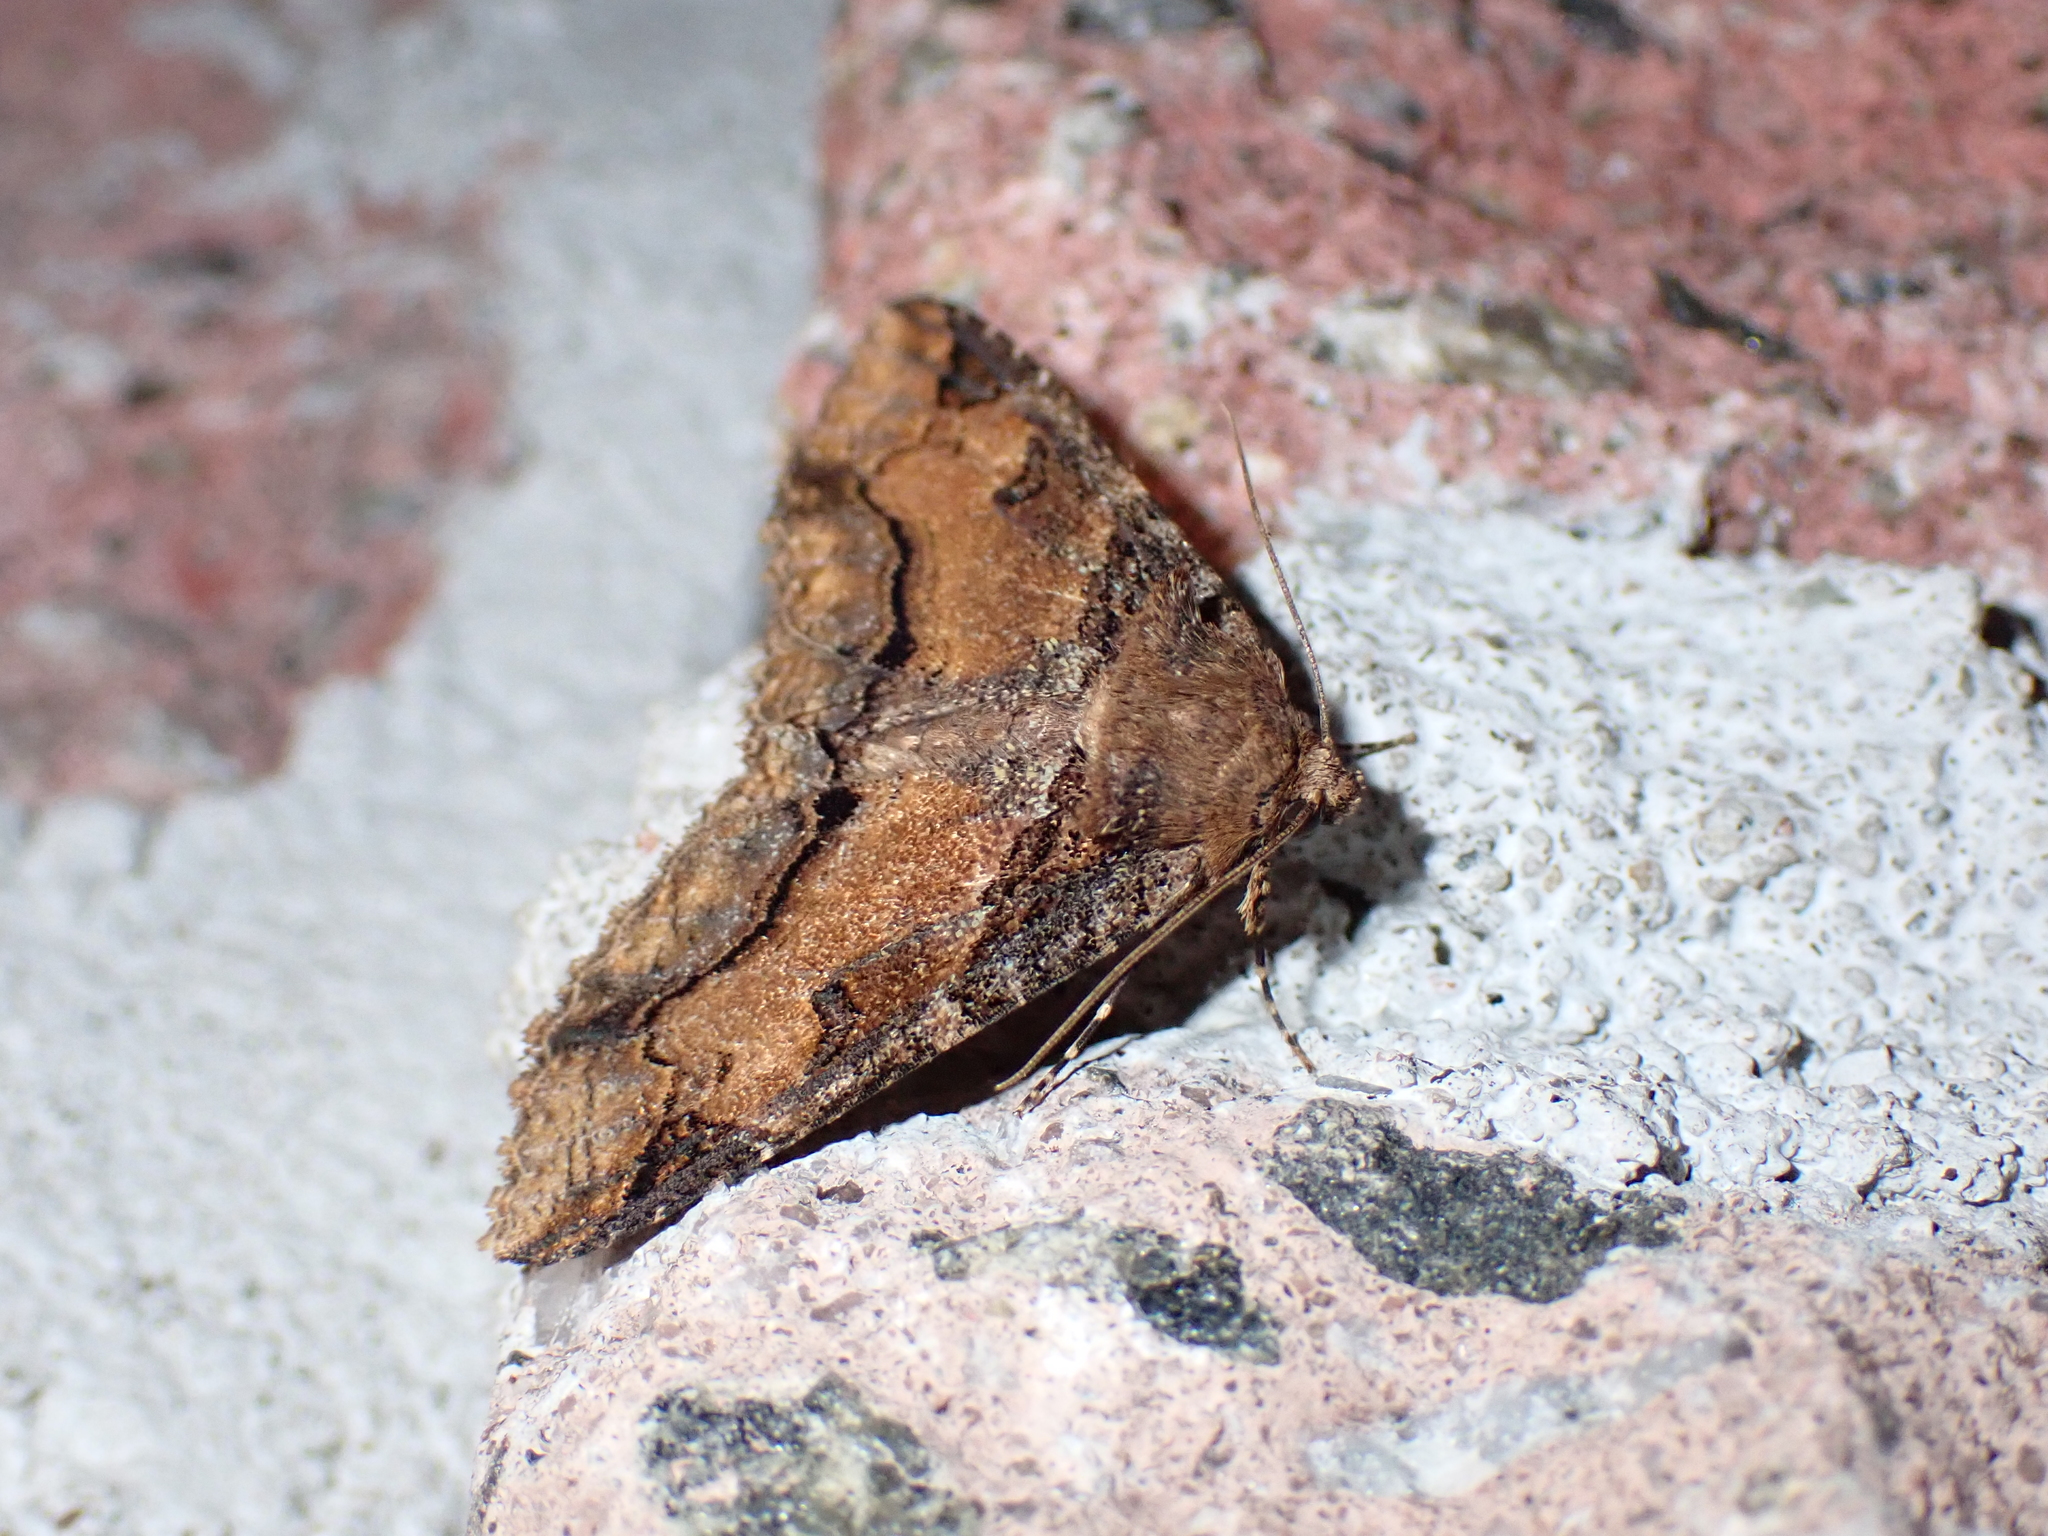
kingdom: Animalia
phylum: Arthropoda
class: Insecta
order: Lepidoptera
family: Erebidae
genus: Zale
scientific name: Zale minerea
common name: Colorful zale moth
